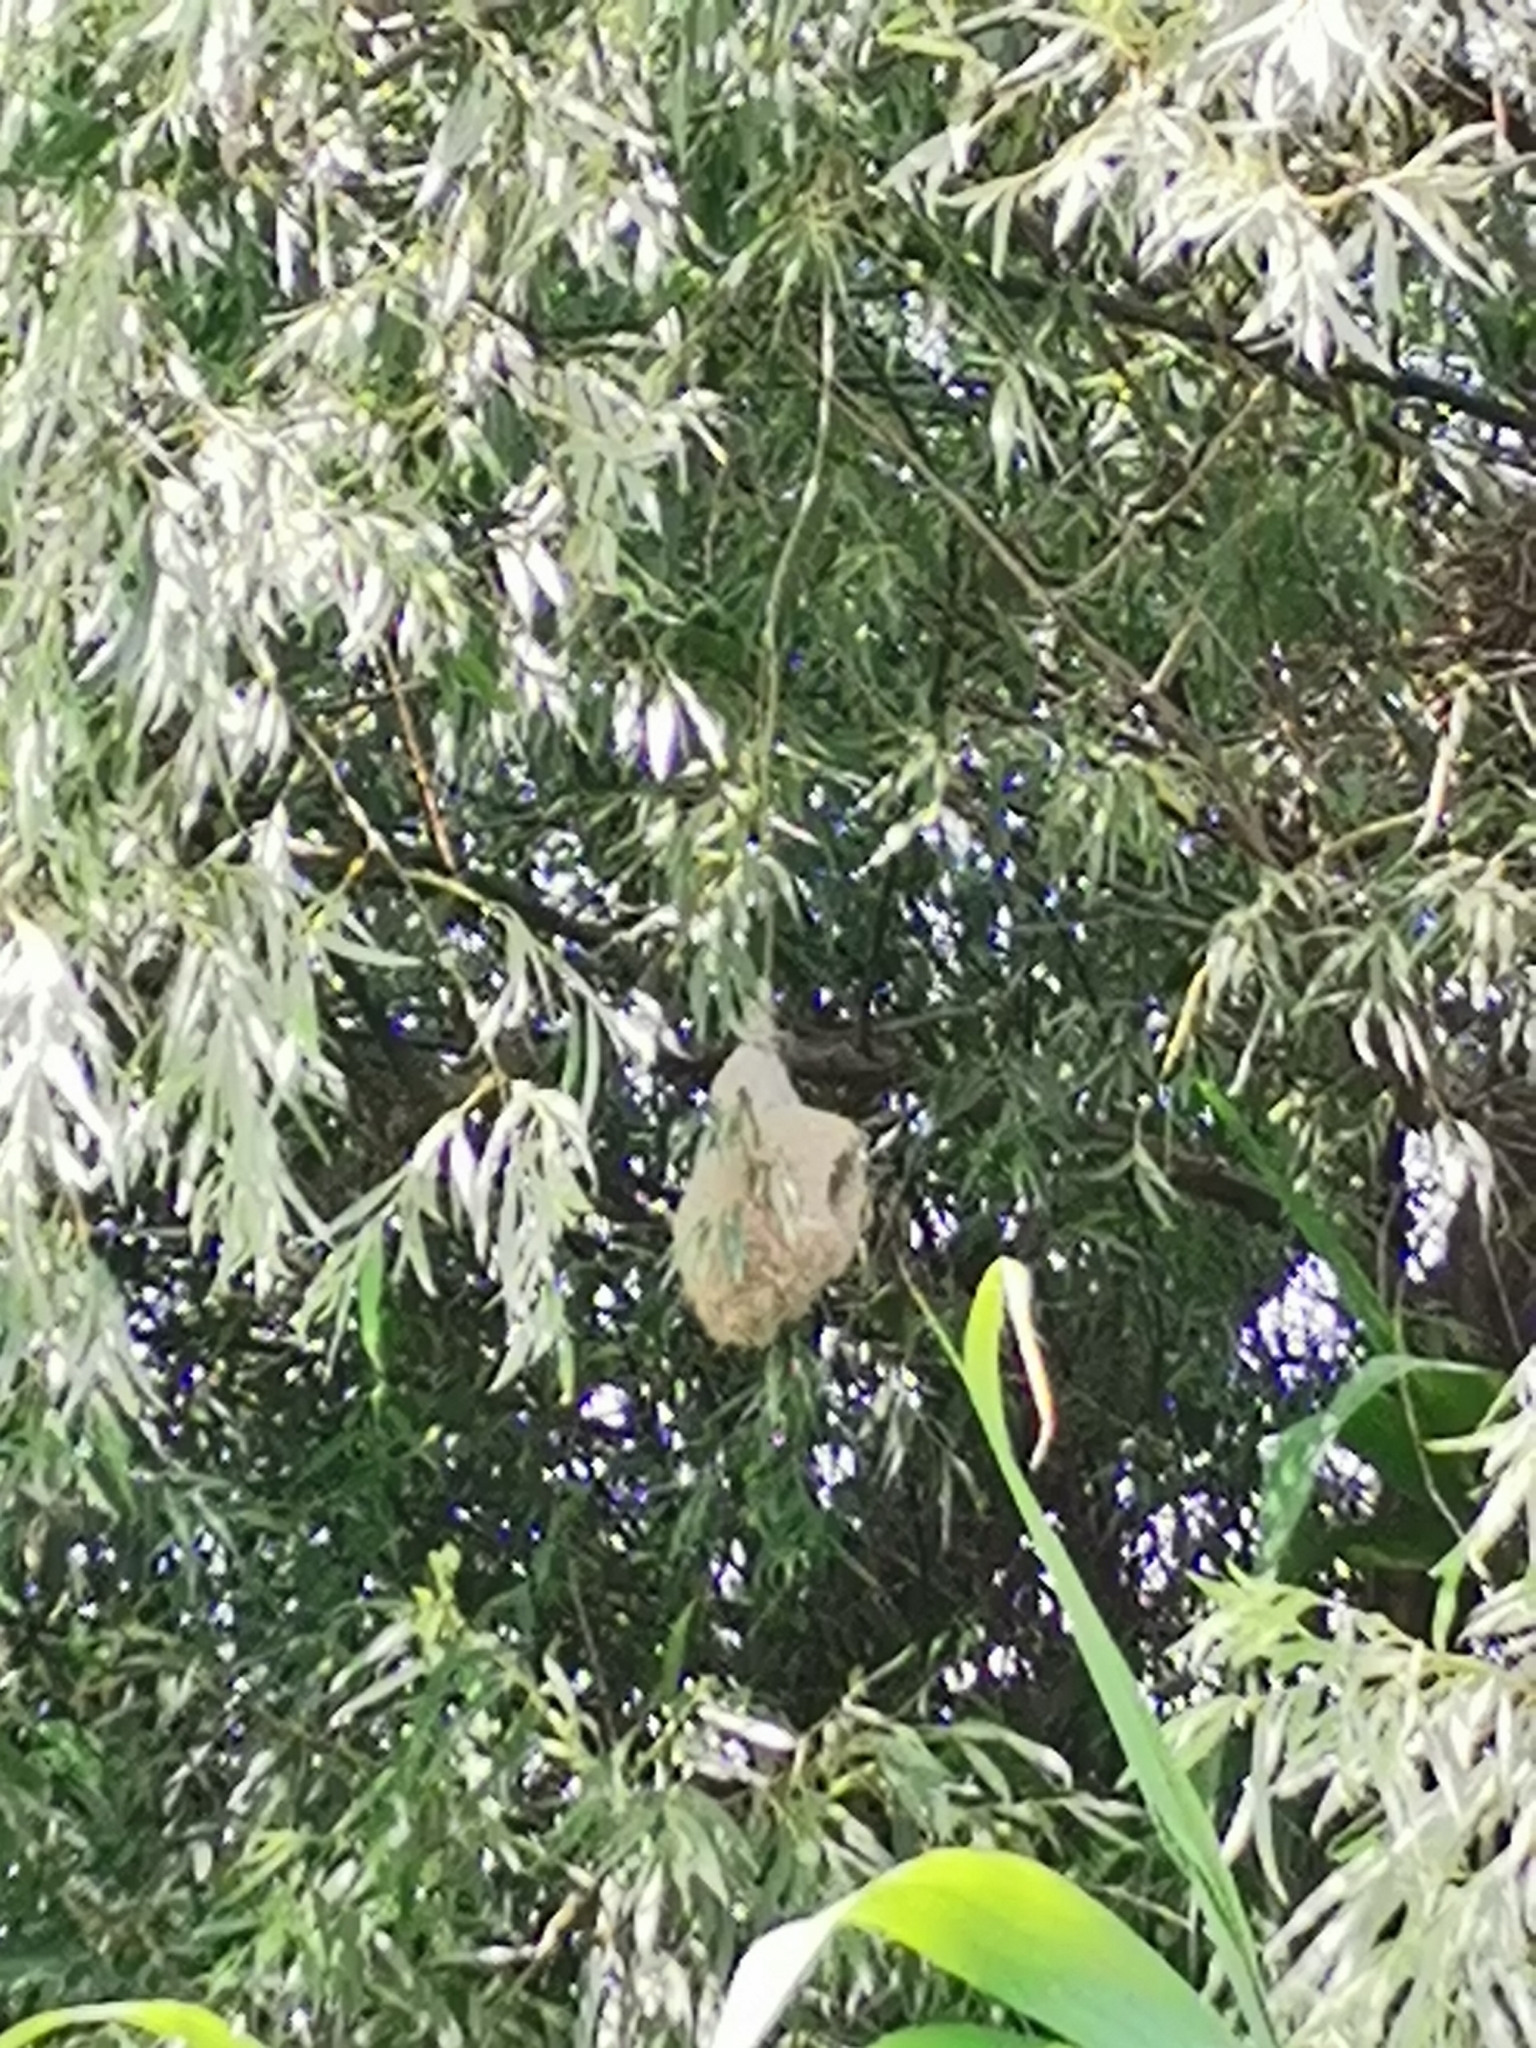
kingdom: Animalia
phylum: Chordata
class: Aves
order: Passeriformes
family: Remizidae
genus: Remiz
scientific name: Remiz pendulinus
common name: Eurasian penduline tit
